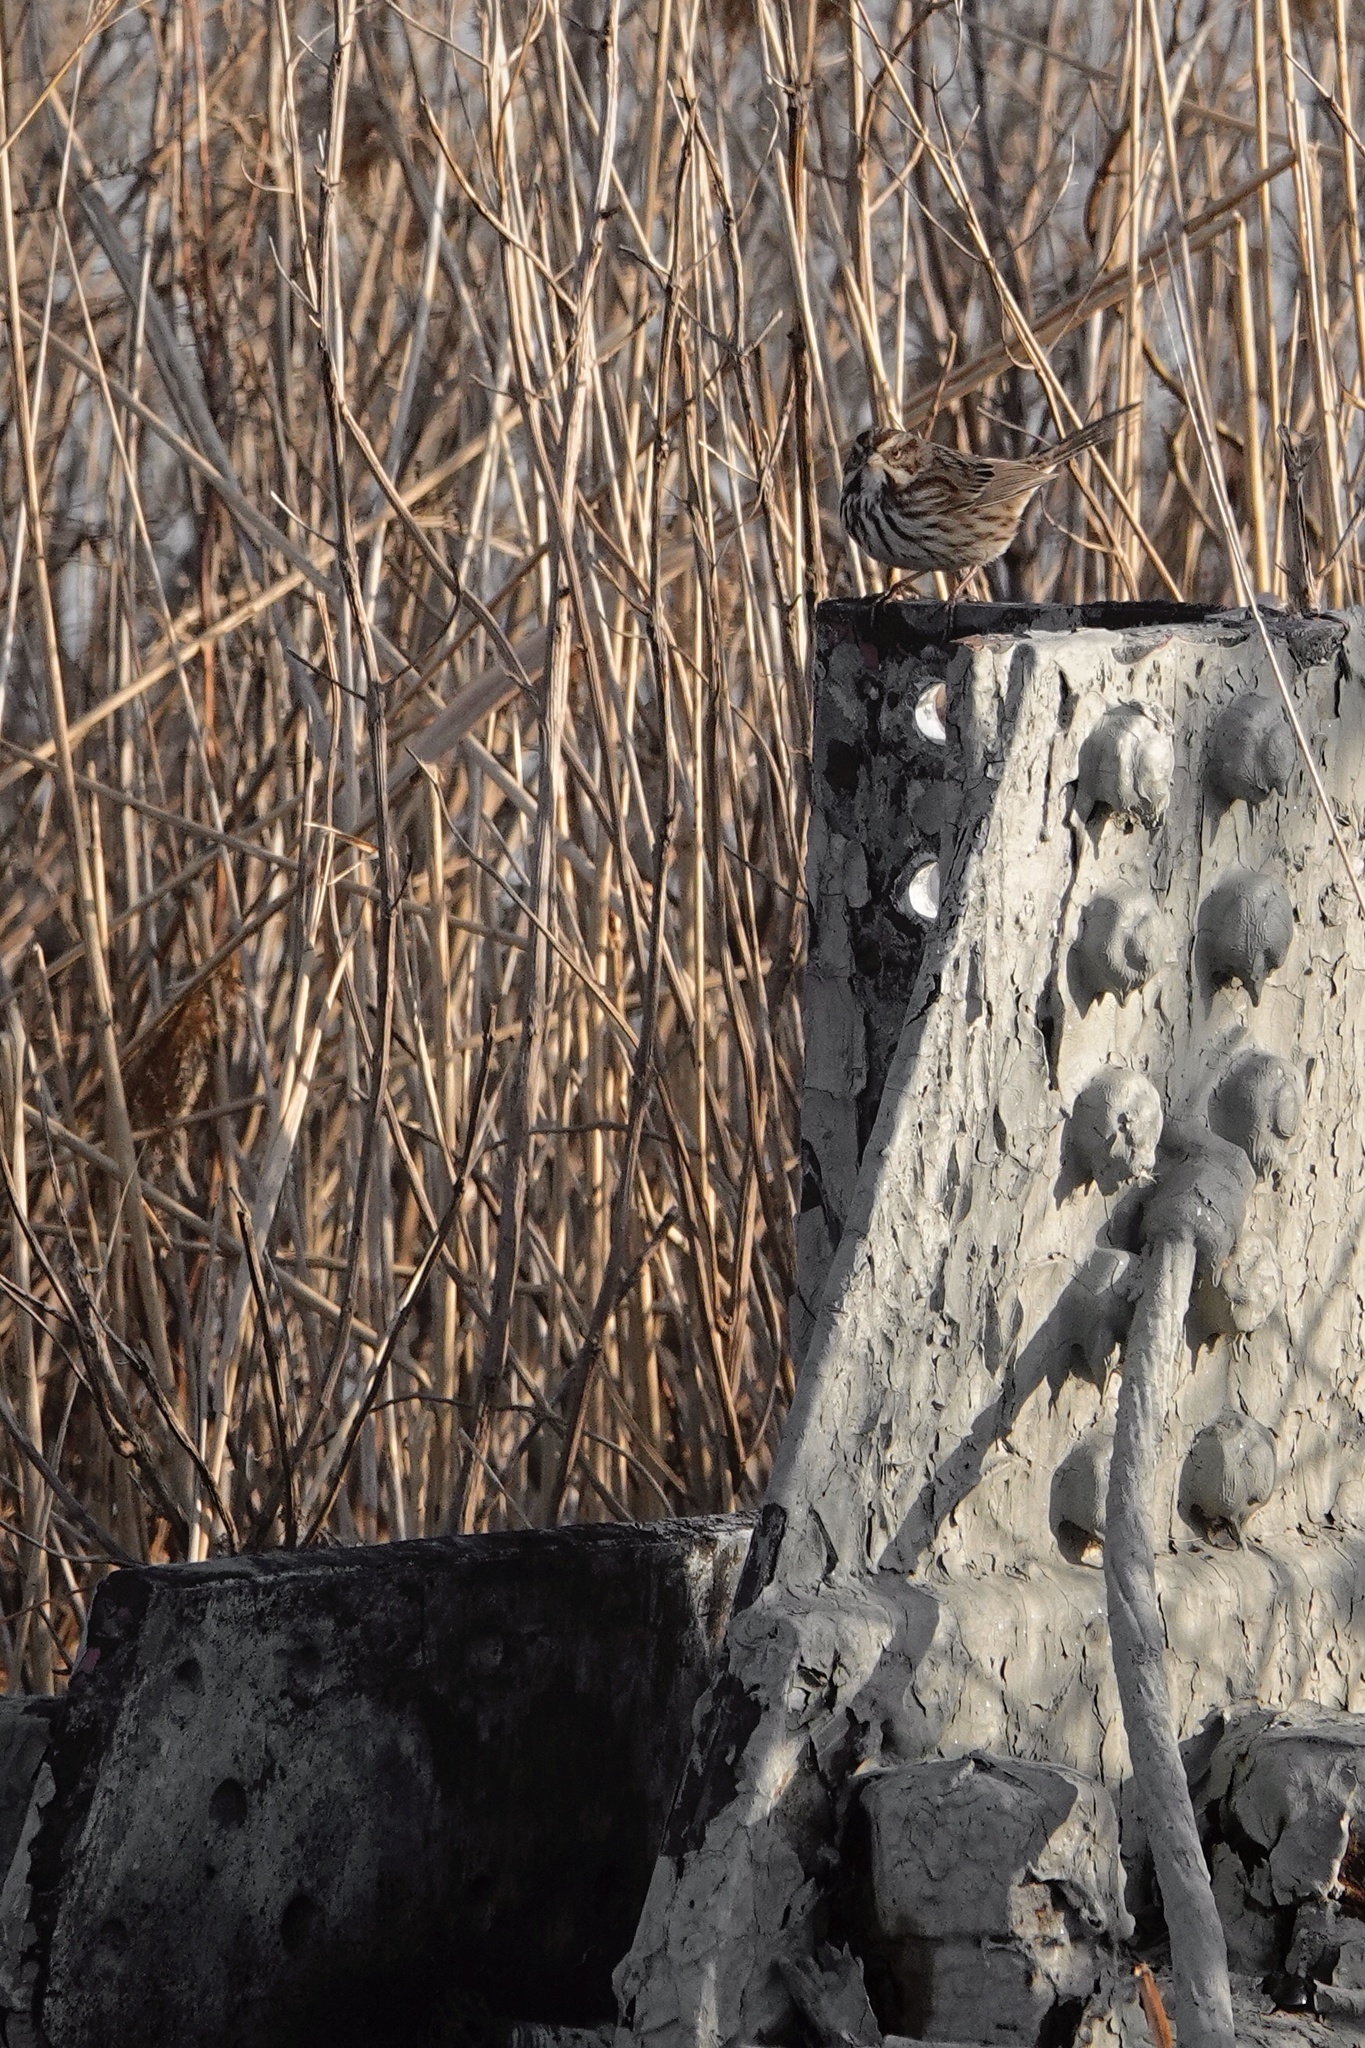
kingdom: Animalia
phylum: Chordata
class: Aves
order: Passeriformes
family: Passerellidae
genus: Melospiza
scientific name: Melospiza melodia
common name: Song sparrow
